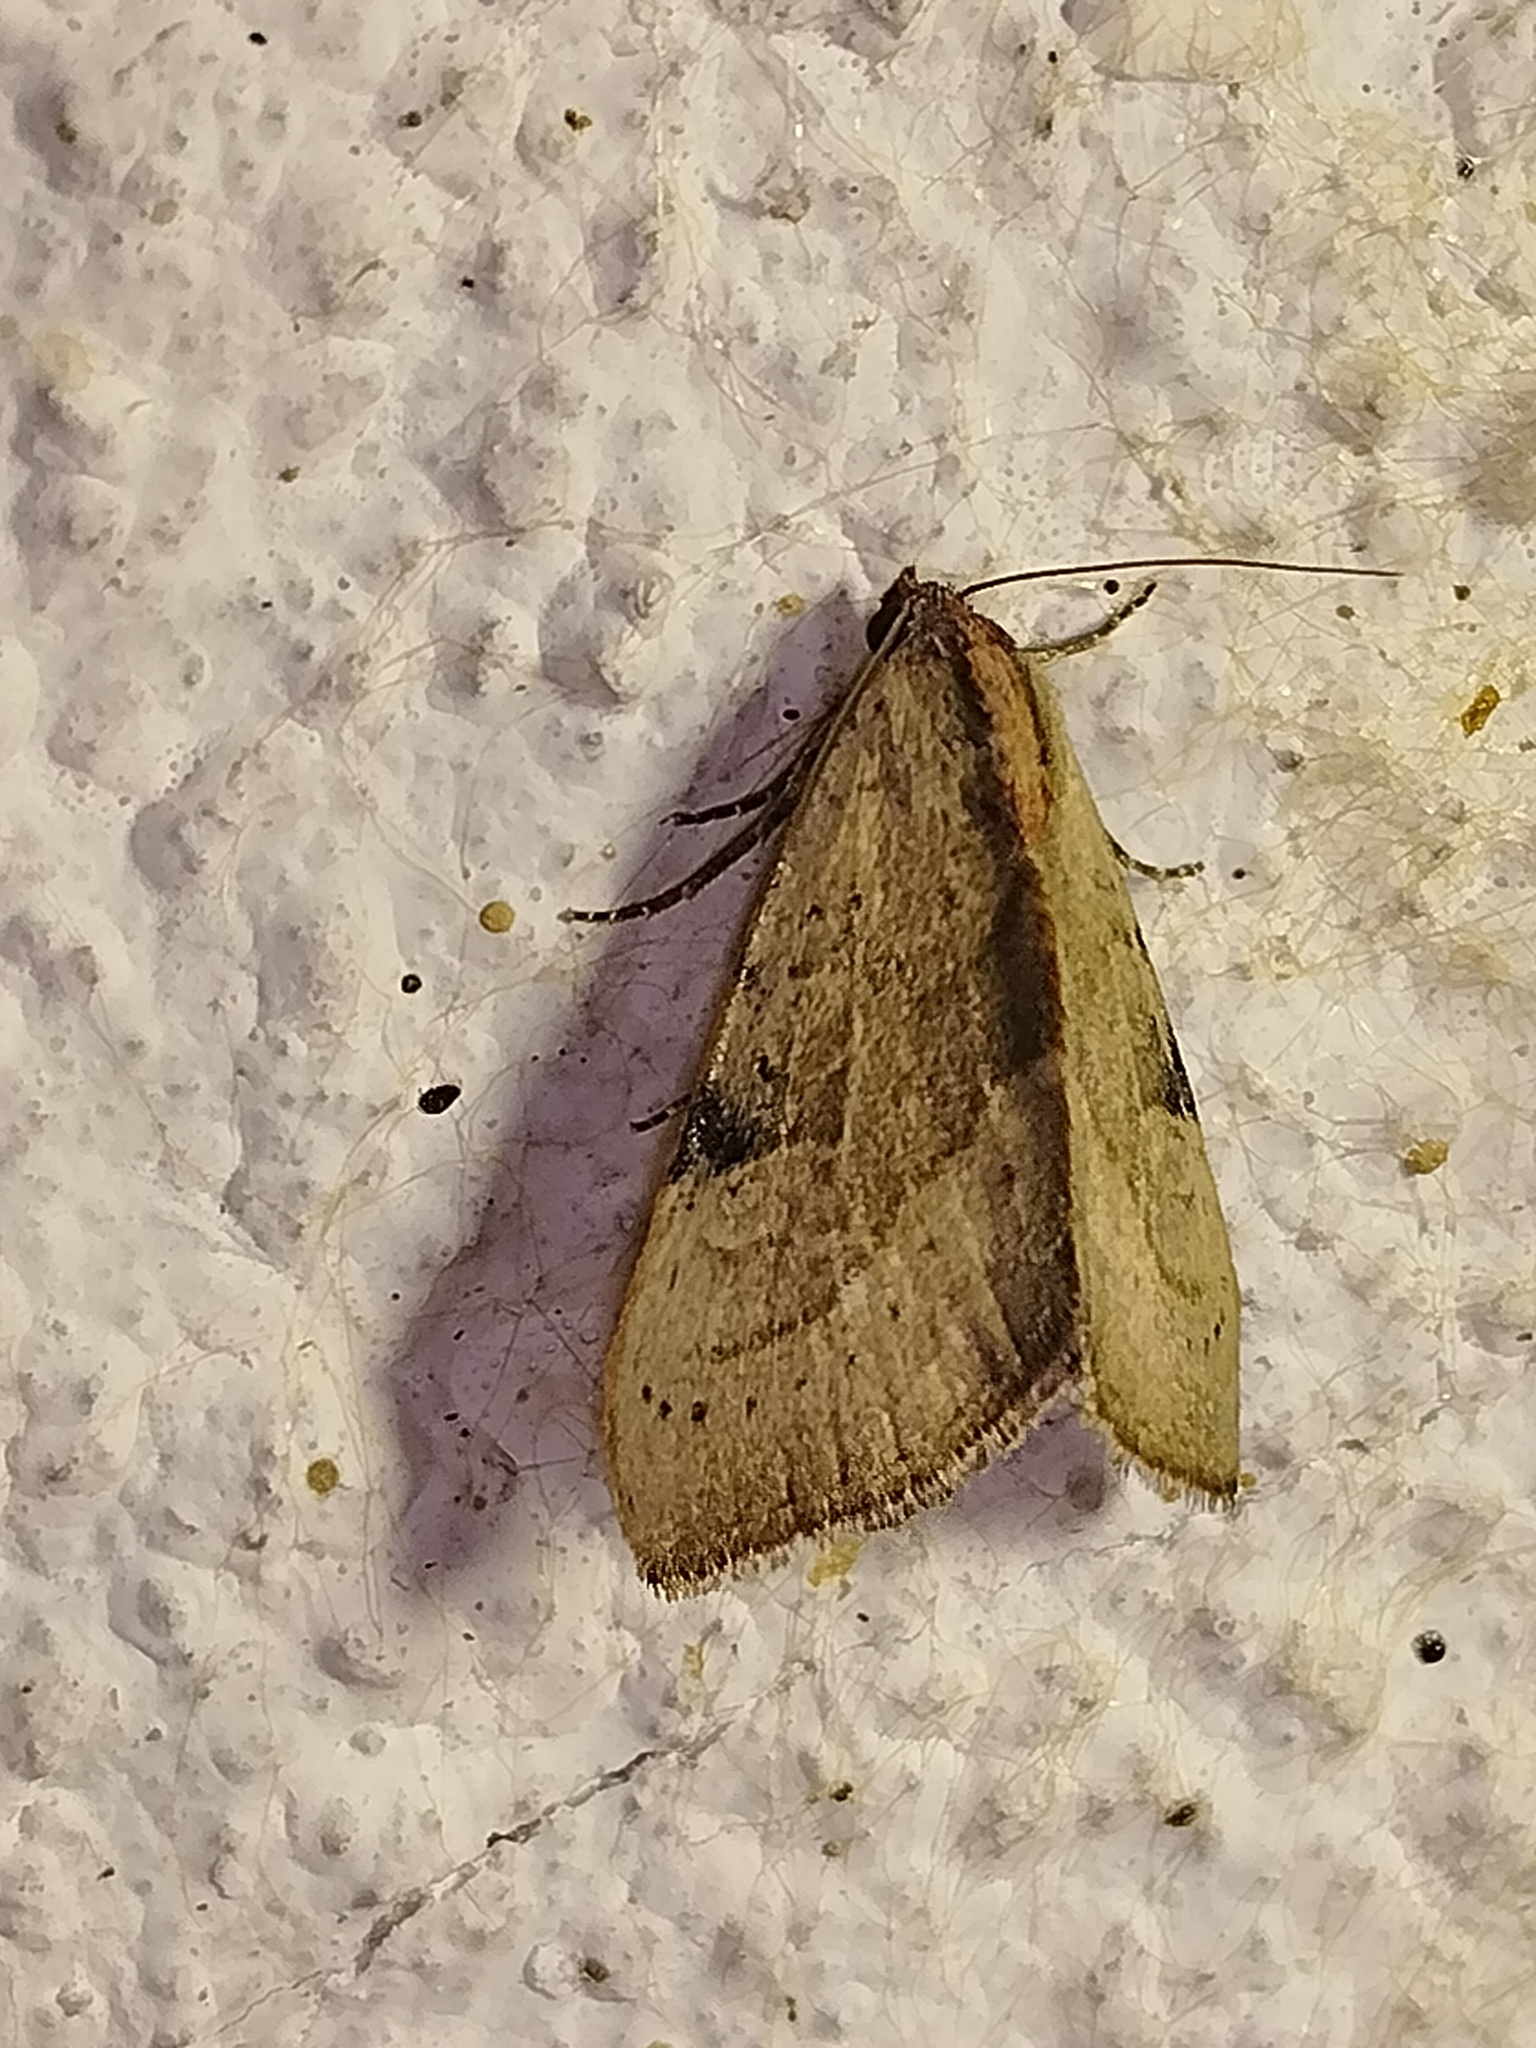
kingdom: Animalia
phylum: Arthropoda
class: Insecta
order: Lepidoptera
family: Noctuidae
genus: Galgula
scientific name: Galgula partita
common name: Wedgeling
